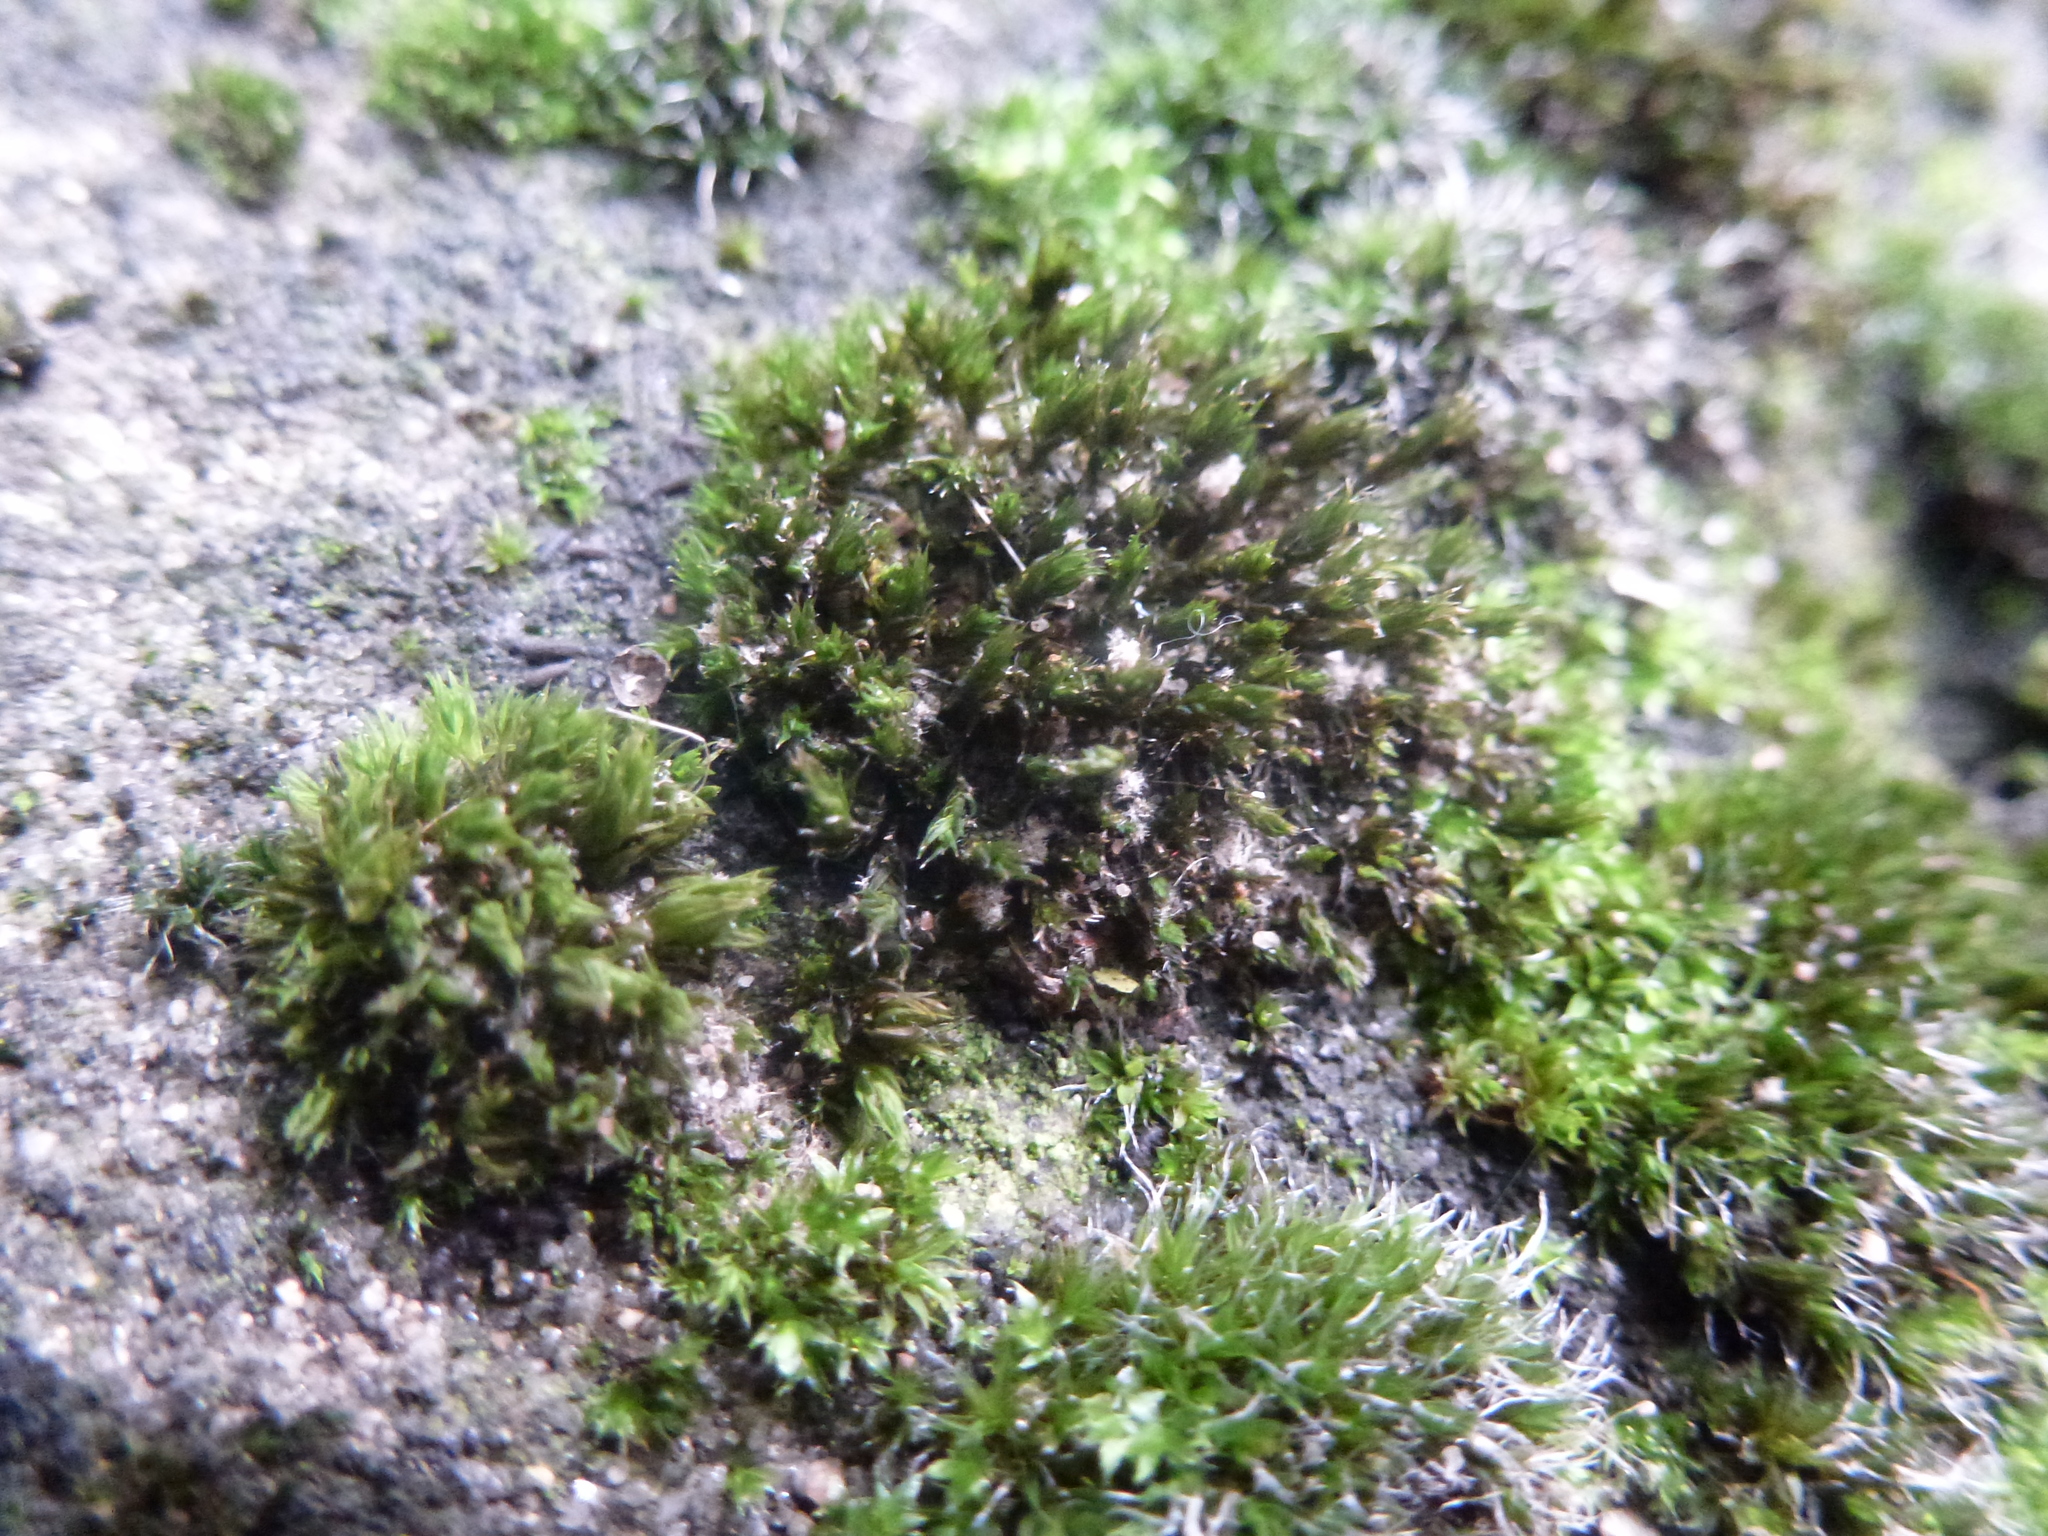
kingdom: Plantae
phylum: Bryophyta
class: Bryopsida
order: Grimmiales
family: Grimmiaceae
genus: Grimmia
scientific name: Grimmia pulvinata
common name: Grey-cushioned grimmia
